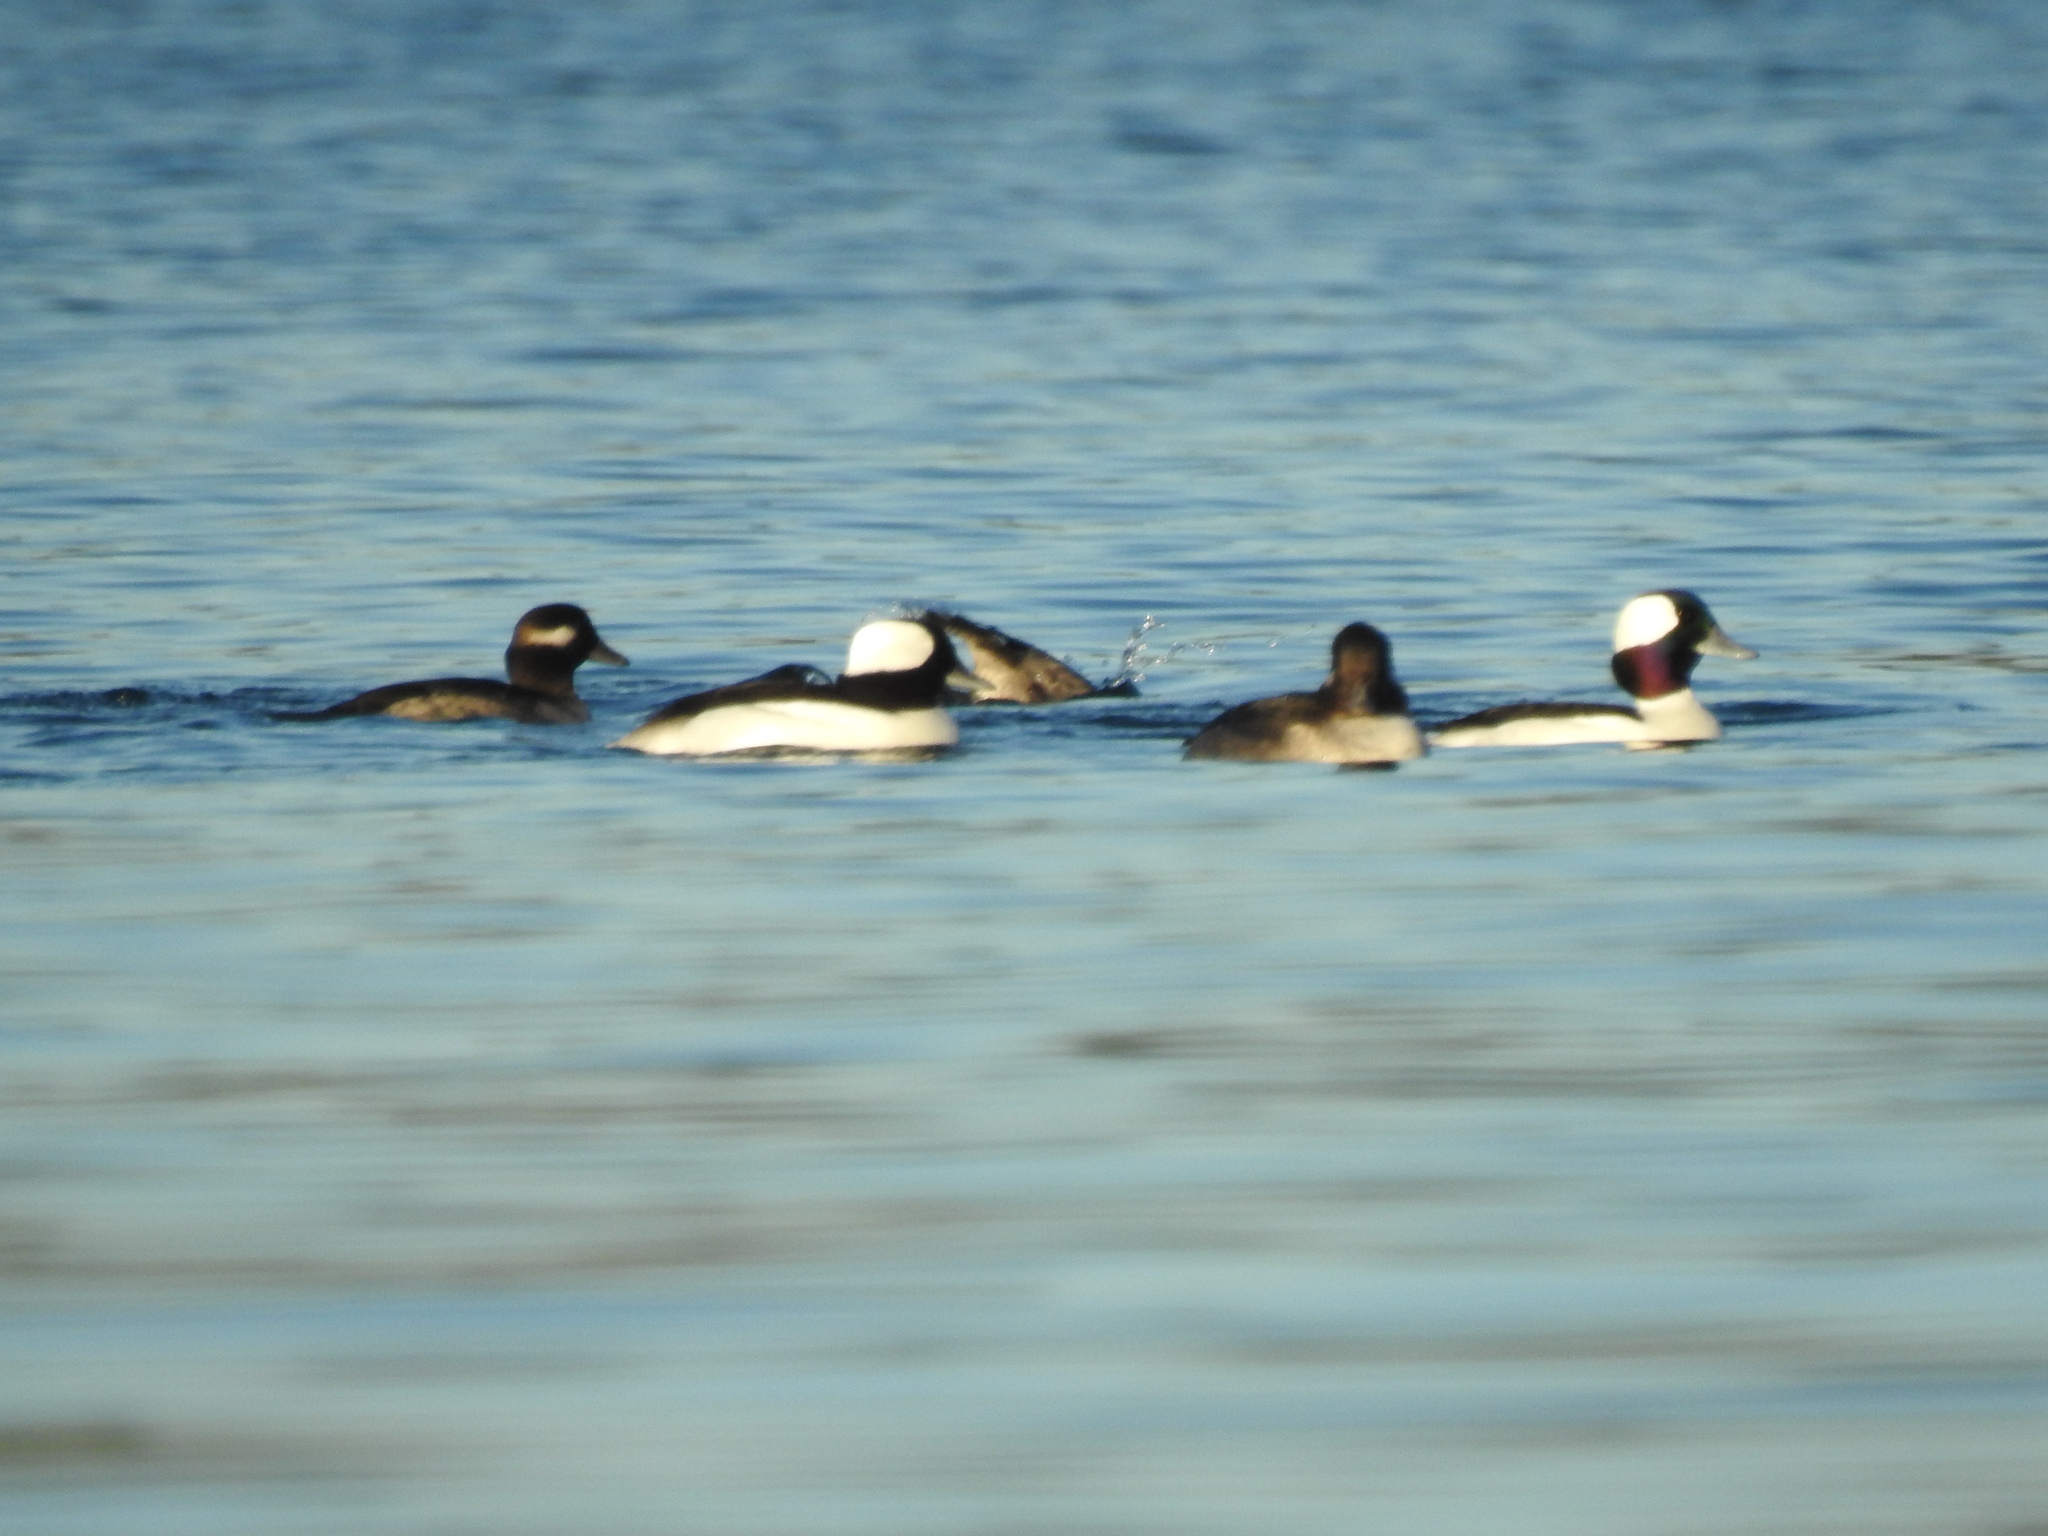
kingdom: Animalia
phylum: Chordata
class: Aves
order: Anseriformes
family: Anatidae
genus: Bucephala
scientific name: Bucephala albeola
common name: Bufflehead
